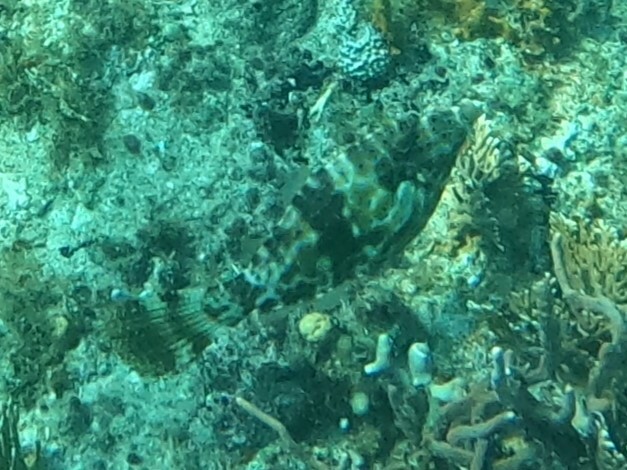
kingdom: Animalia
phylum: Chordata
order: Tetraodontiformes
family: Monacanthidae
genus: Aluterus
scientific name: Aluterus scriptus
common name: Scribbled leatherjacket filefish
